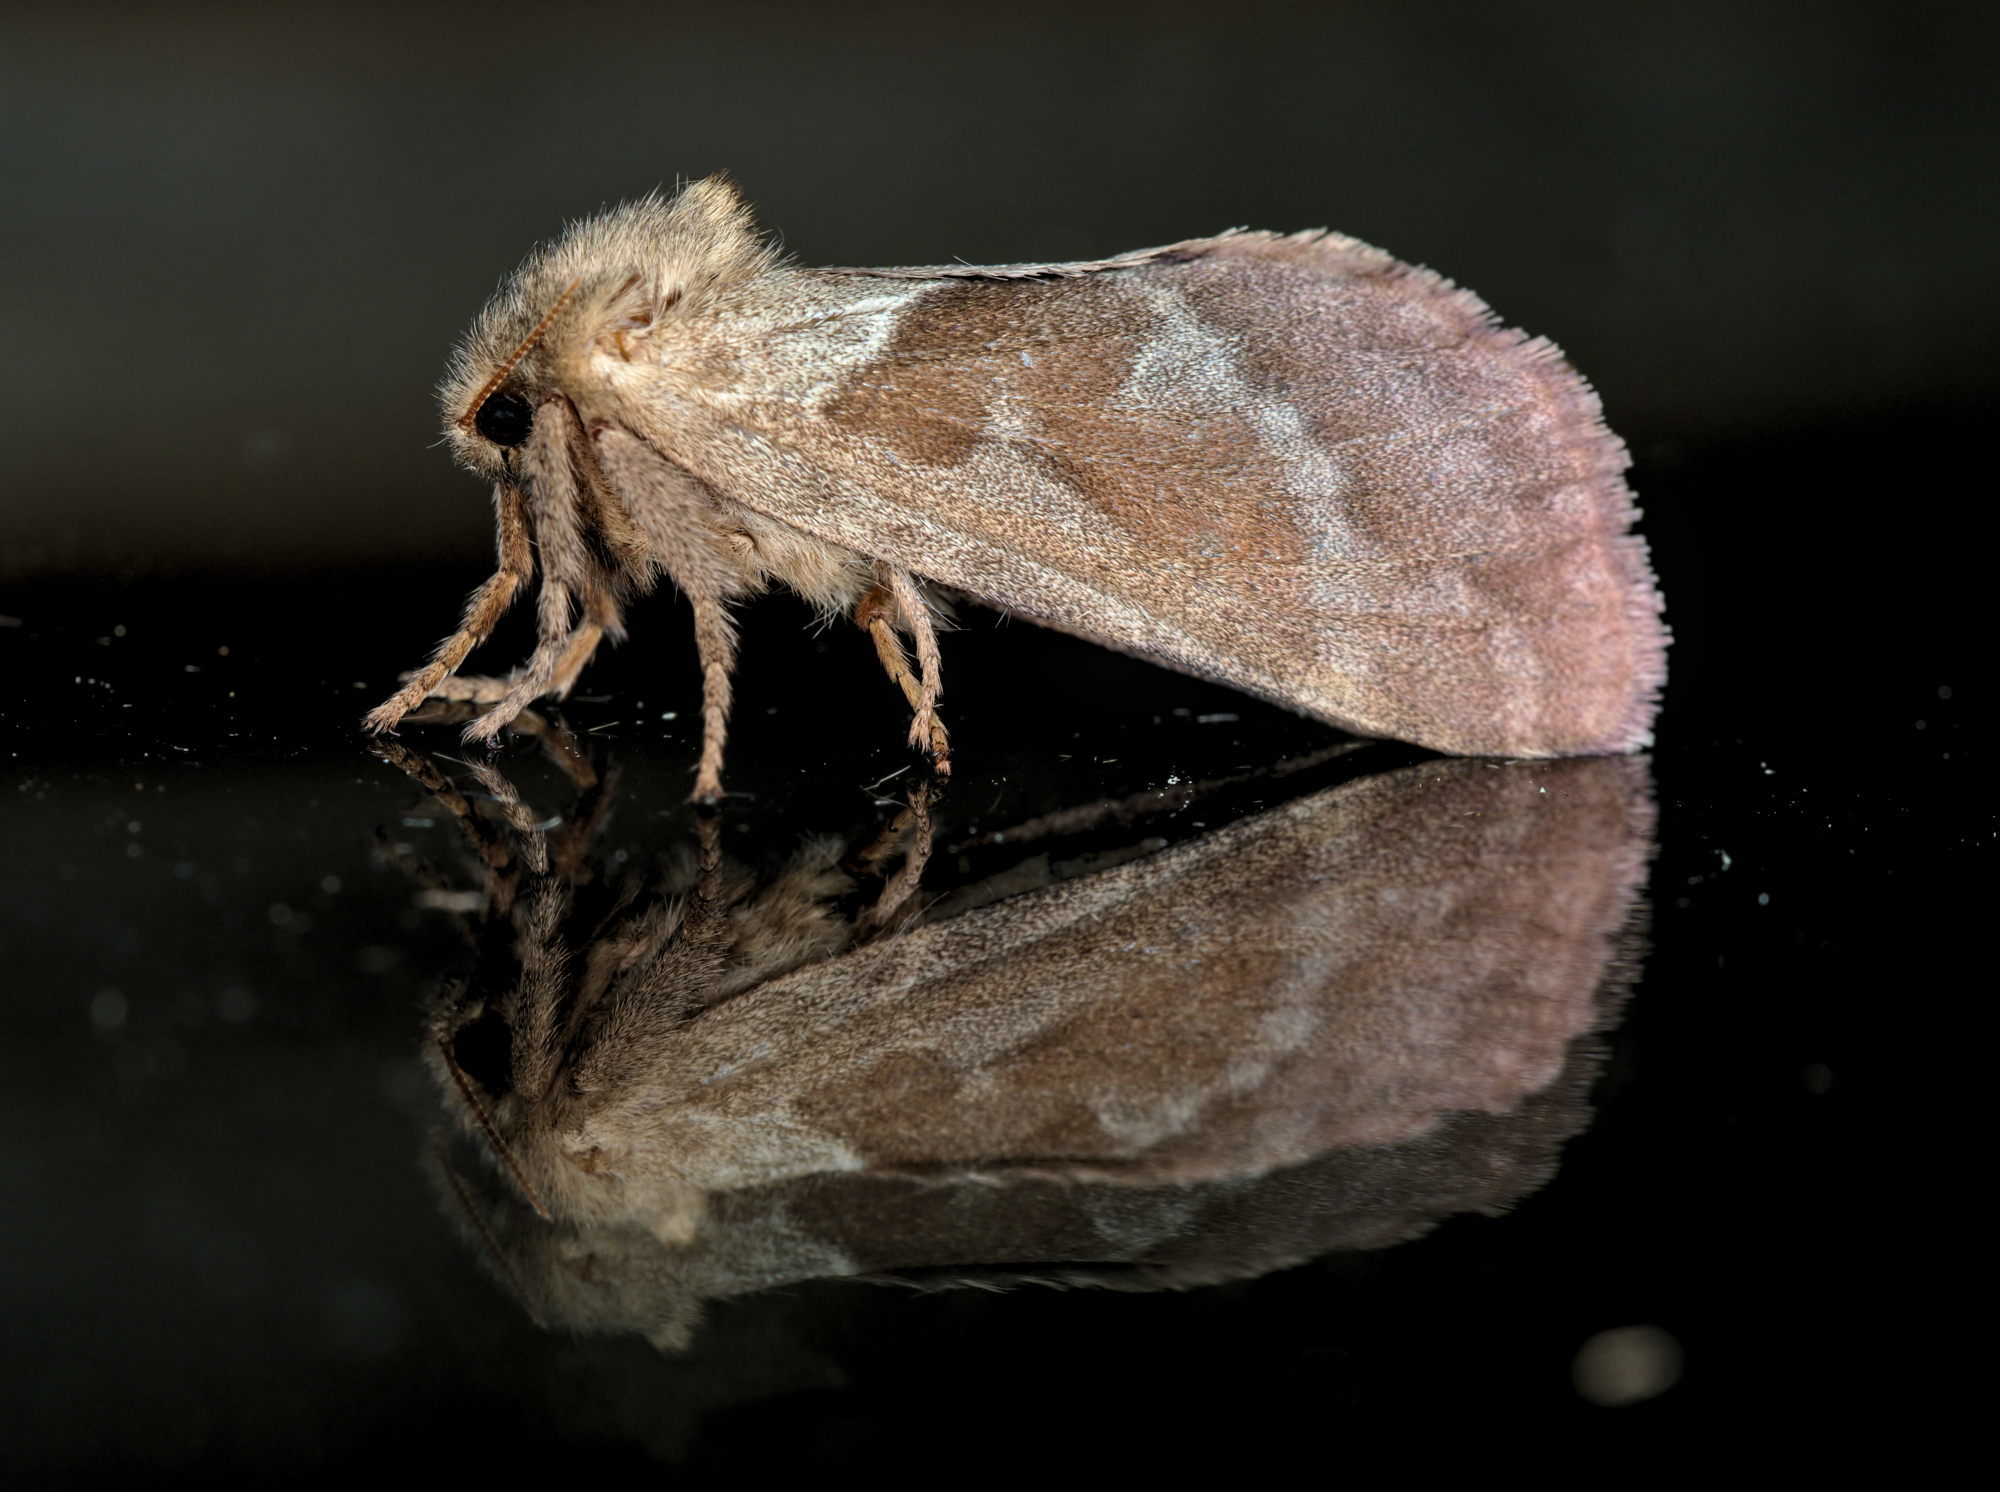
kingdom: Animalia
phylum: Arthropoda
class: Insecta
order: Lepidoptera
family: Hepialidae
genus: Triodia
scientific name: Triodia sylvina
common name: Orange swift
